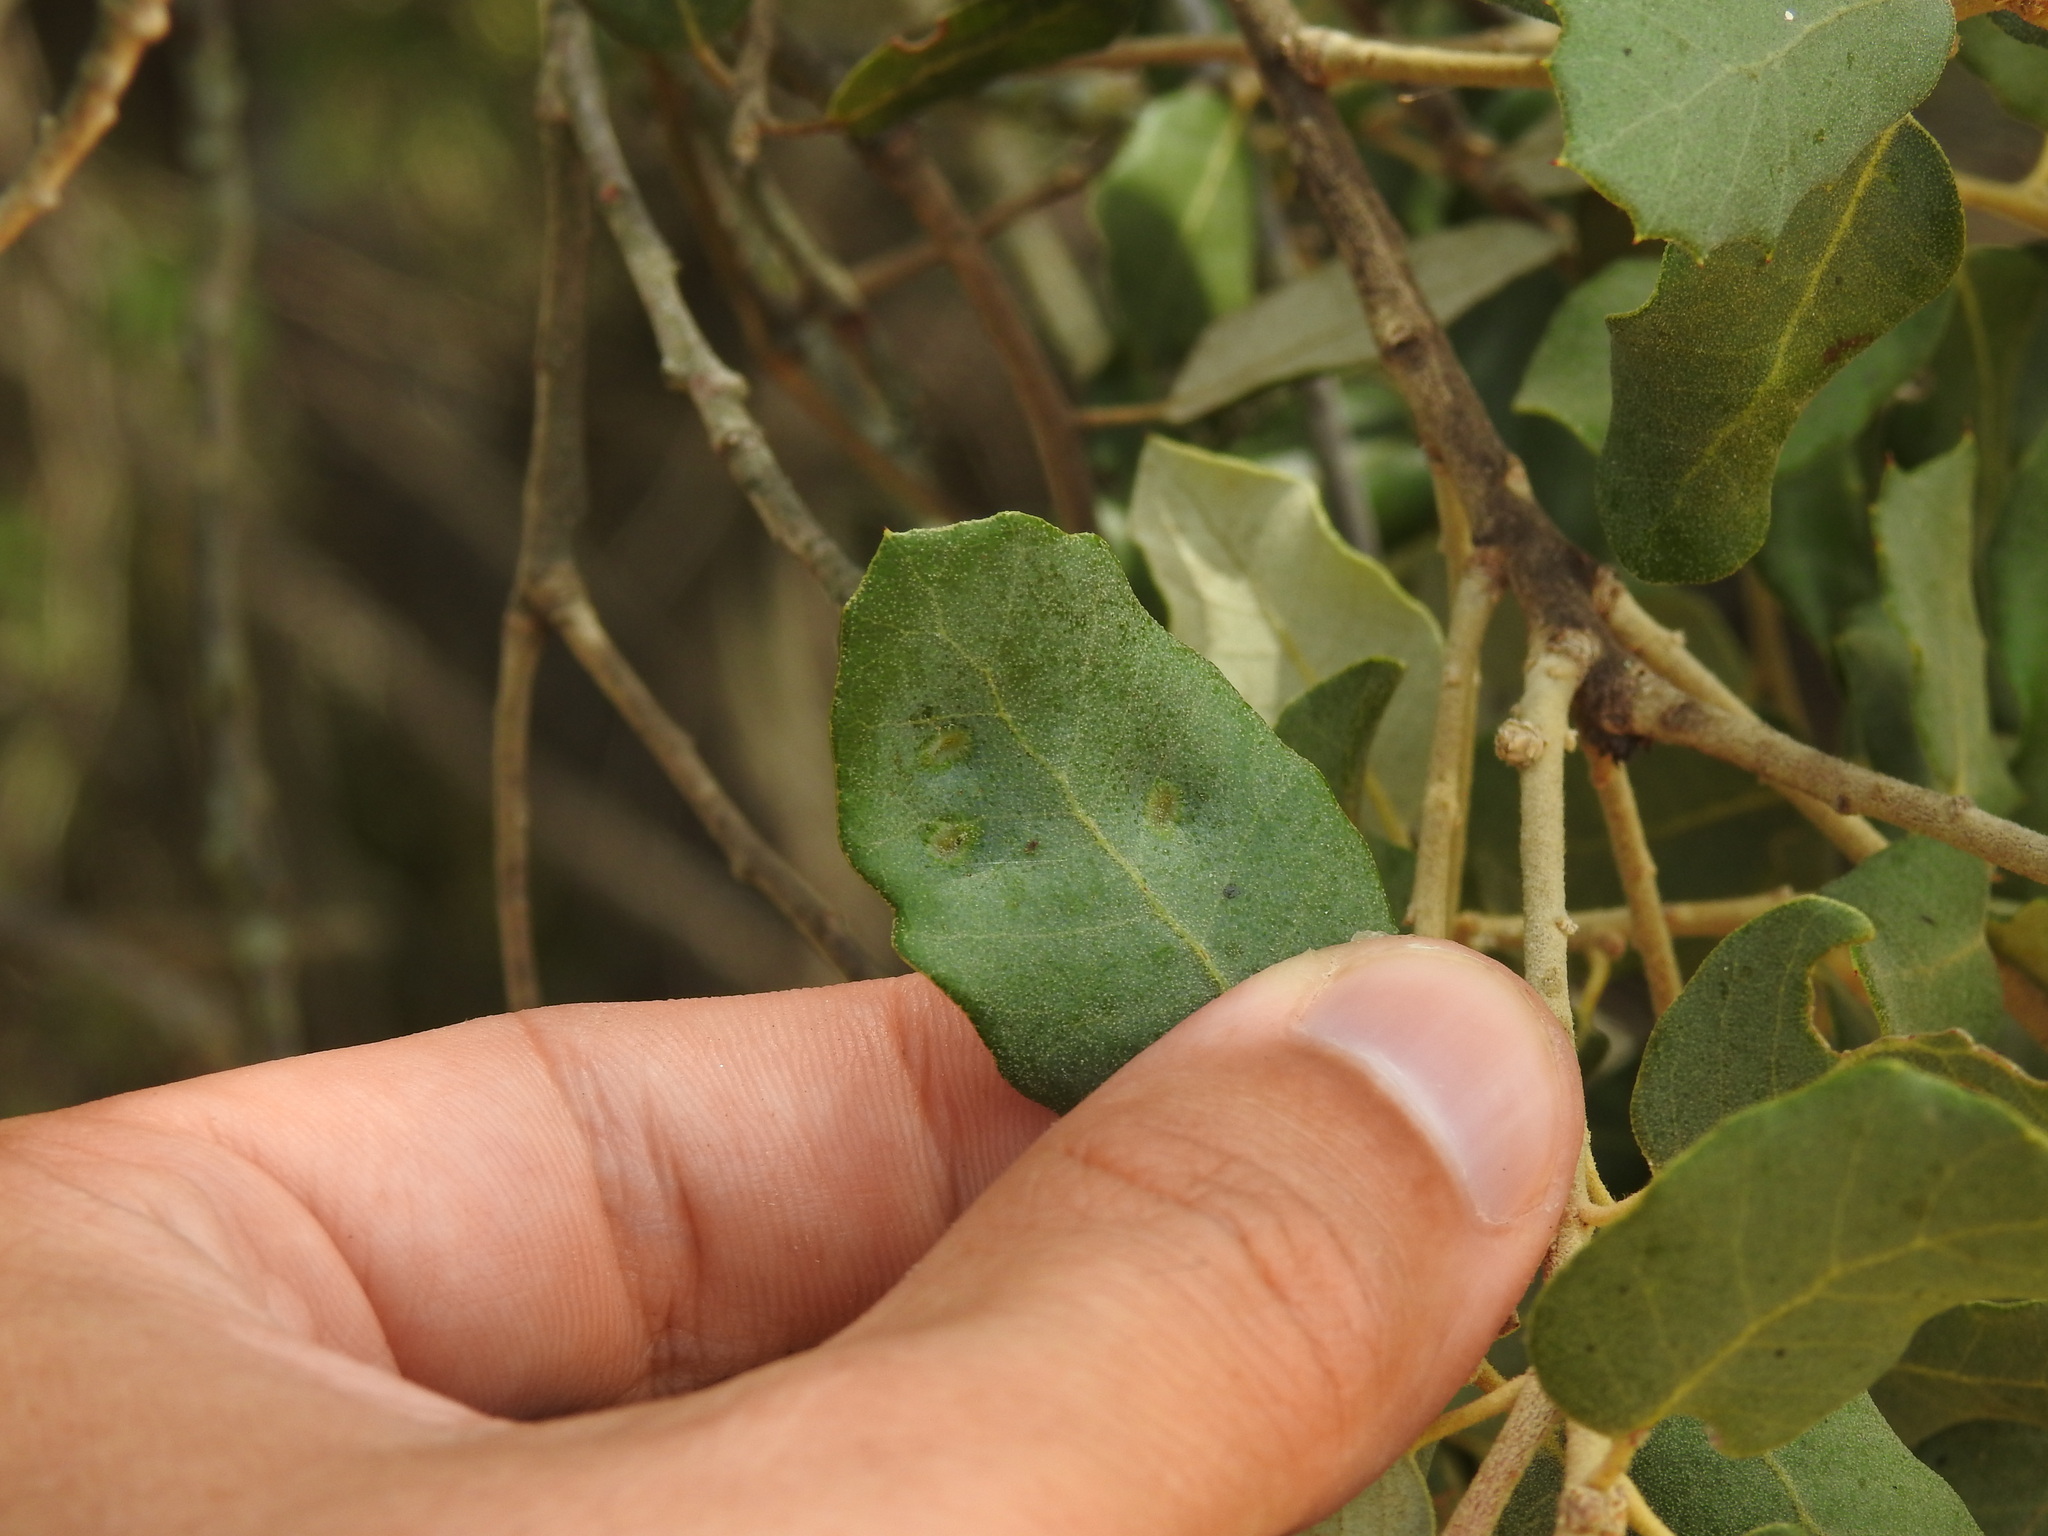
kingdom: Animalia
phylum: Arthropoda
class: Insecta
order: Diptera
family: Cecidomyiidae
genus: Dryomyia
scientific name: Dryomyia lichtensteinii
